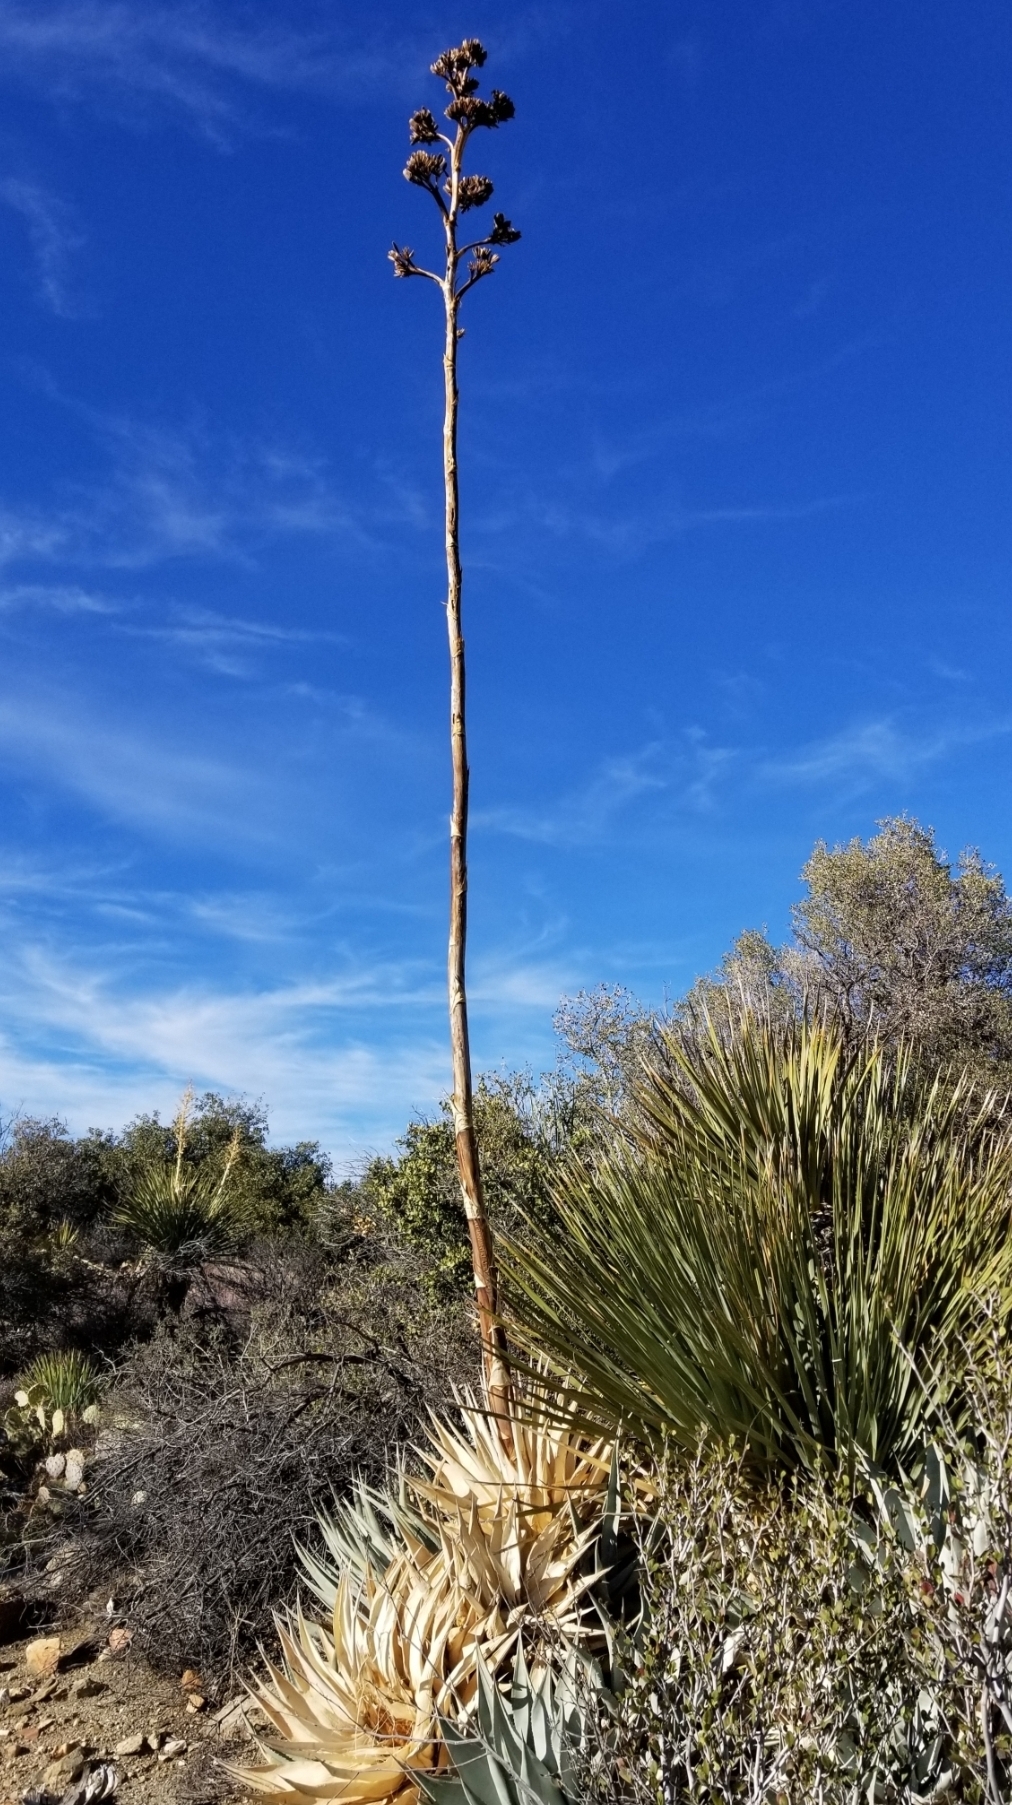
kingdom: Plantae
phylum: Tracheophyta
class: Liliopsida
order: Asparagales
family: Asparagaceae
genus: Agave
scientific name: Agave deserti
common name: Desert agave
